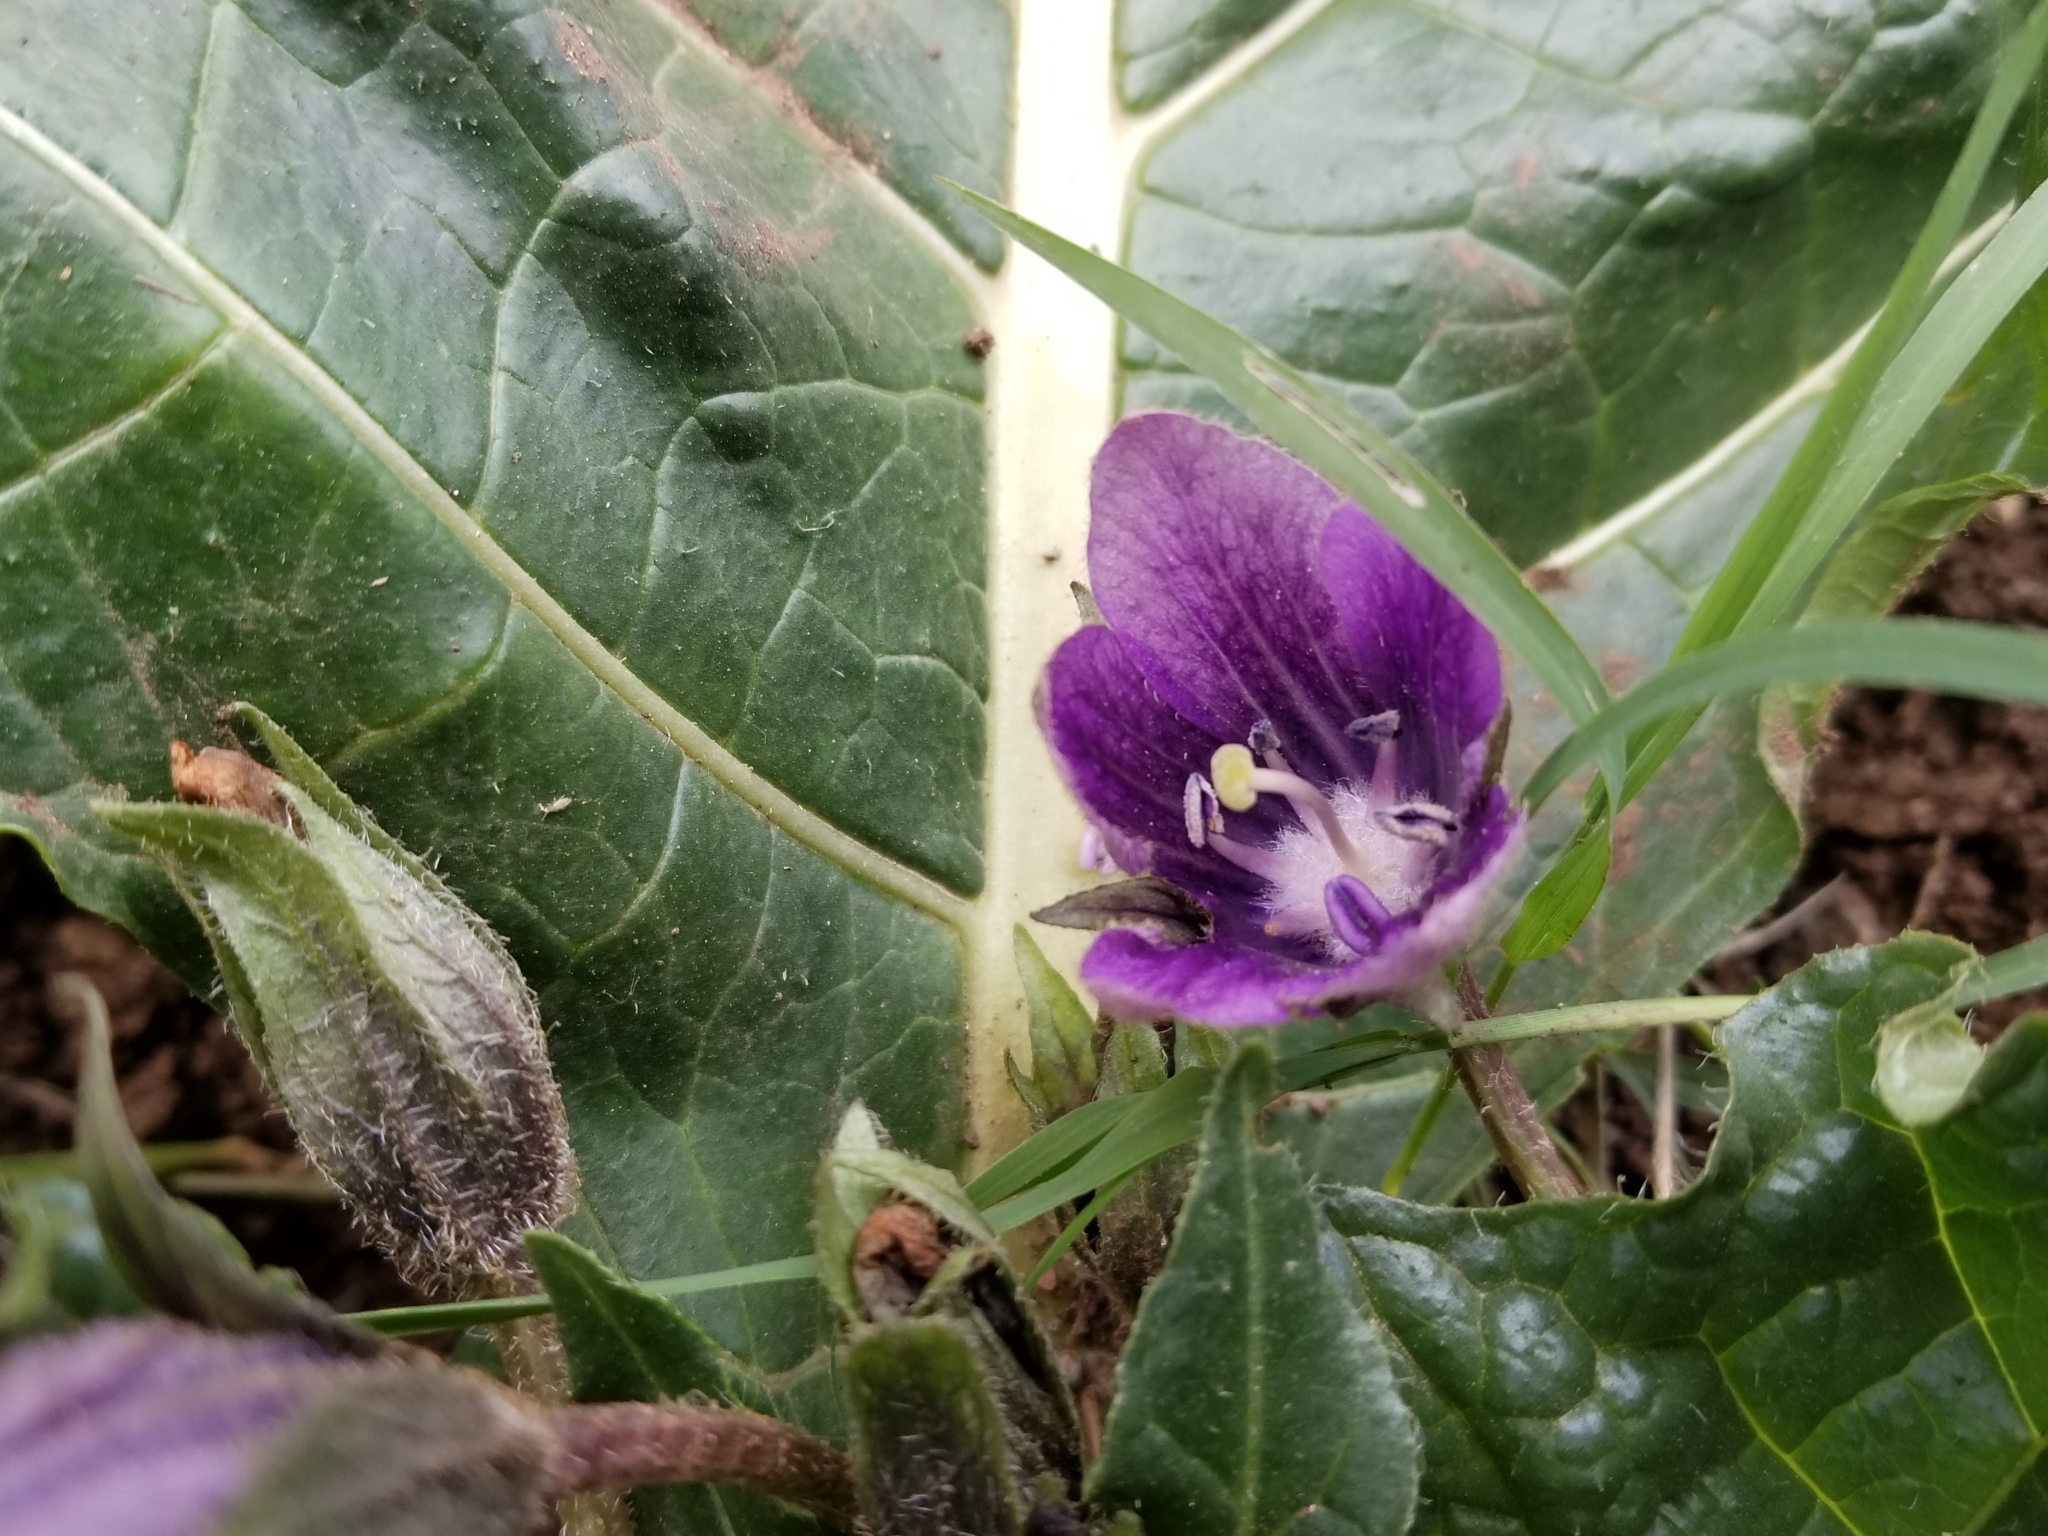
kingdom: Plantae
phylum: Tracheophyta
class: Magnoliopsida
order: Solanales
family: Solanaceae
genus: Mandragora
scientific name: Mandragora officinarum
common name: Mandrake
